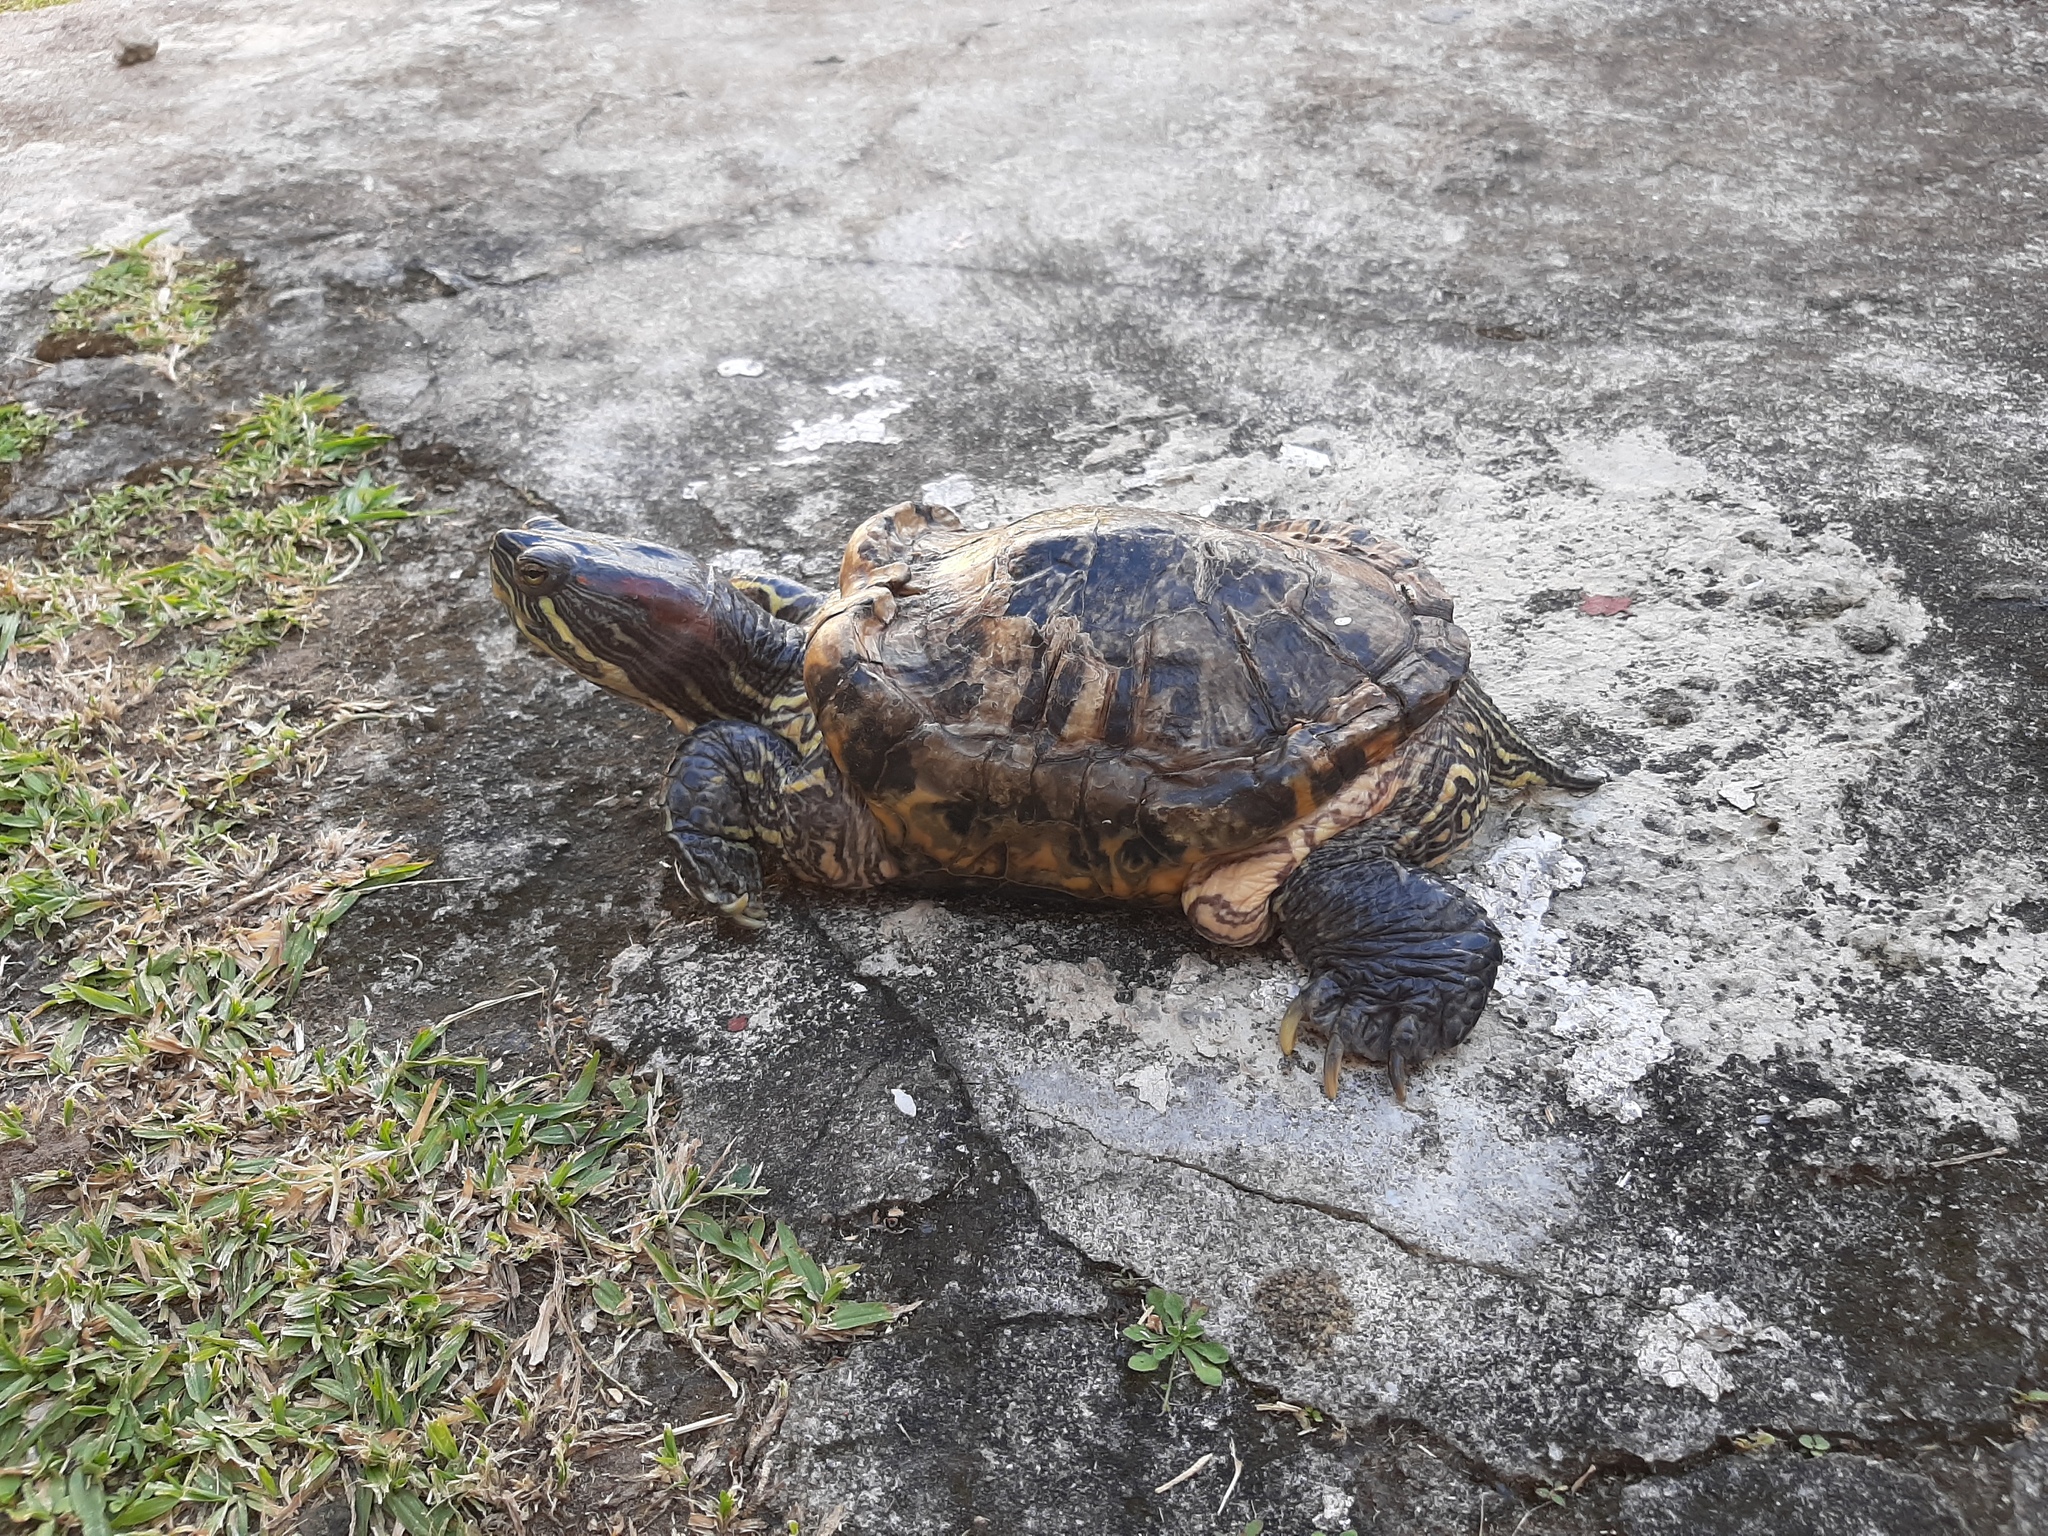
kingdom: Animalia
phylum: Chordata
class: Testudines
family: Emydidae
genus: Trachemys
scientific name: Trachemys scripta
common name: Slider
